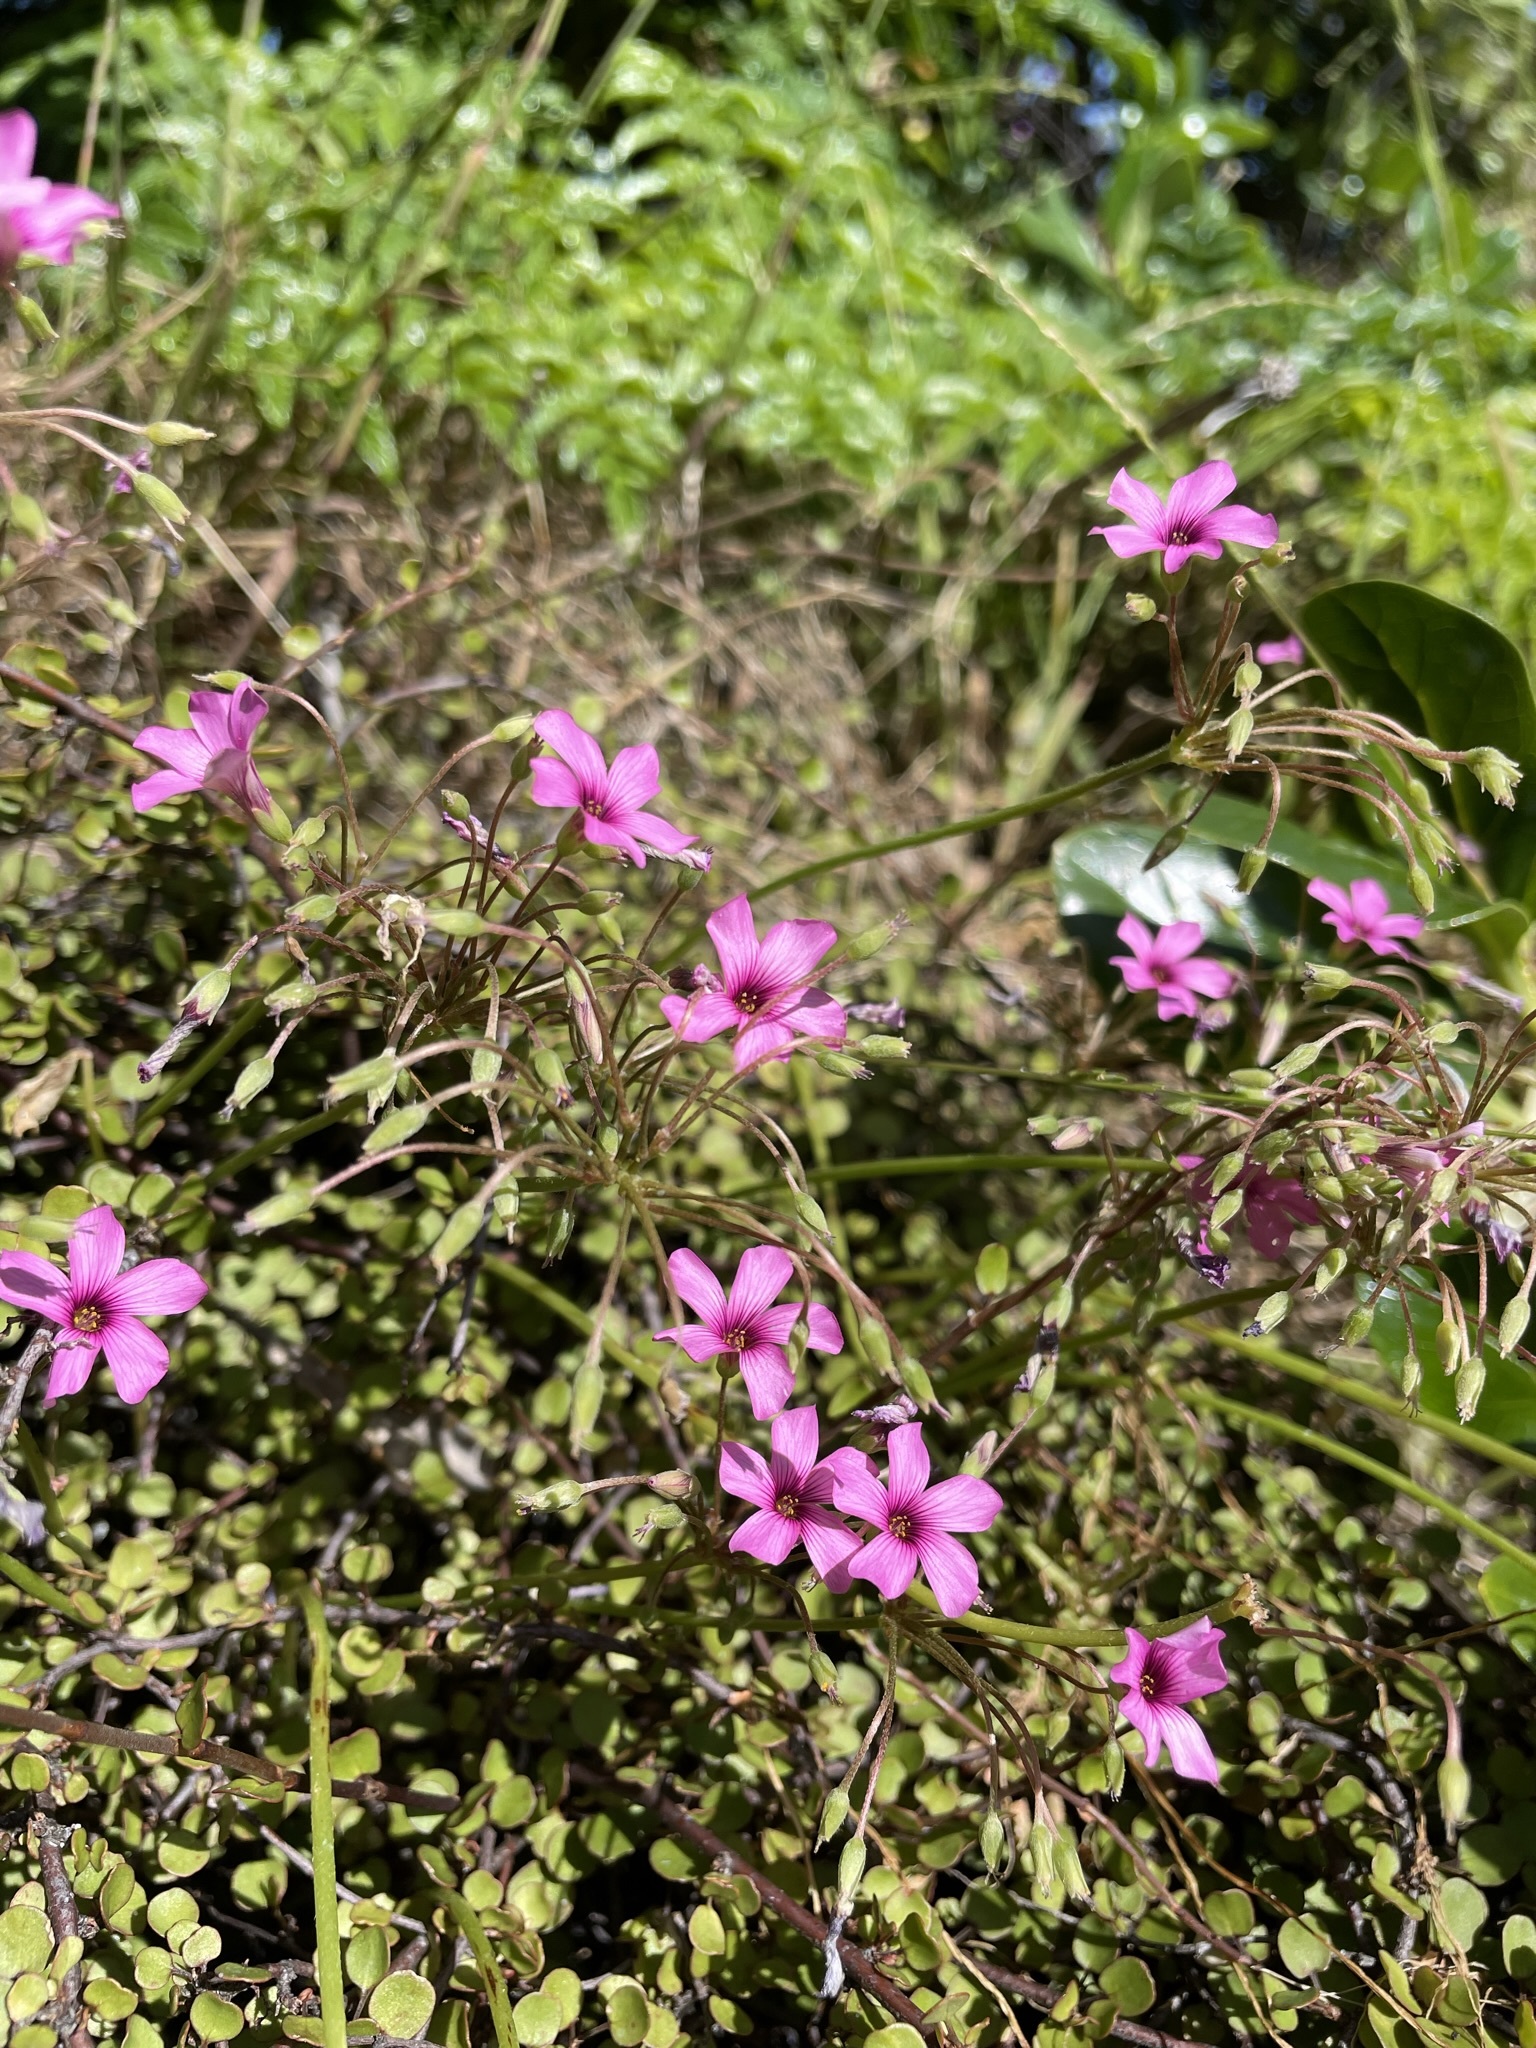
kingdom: Plantae
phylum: Tracheophyta
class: Magnoliopsida
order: Oxalidales
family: Oxalidaceae
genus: Oxalis
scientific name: Oxalis articulata
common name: Pink-sorrel
